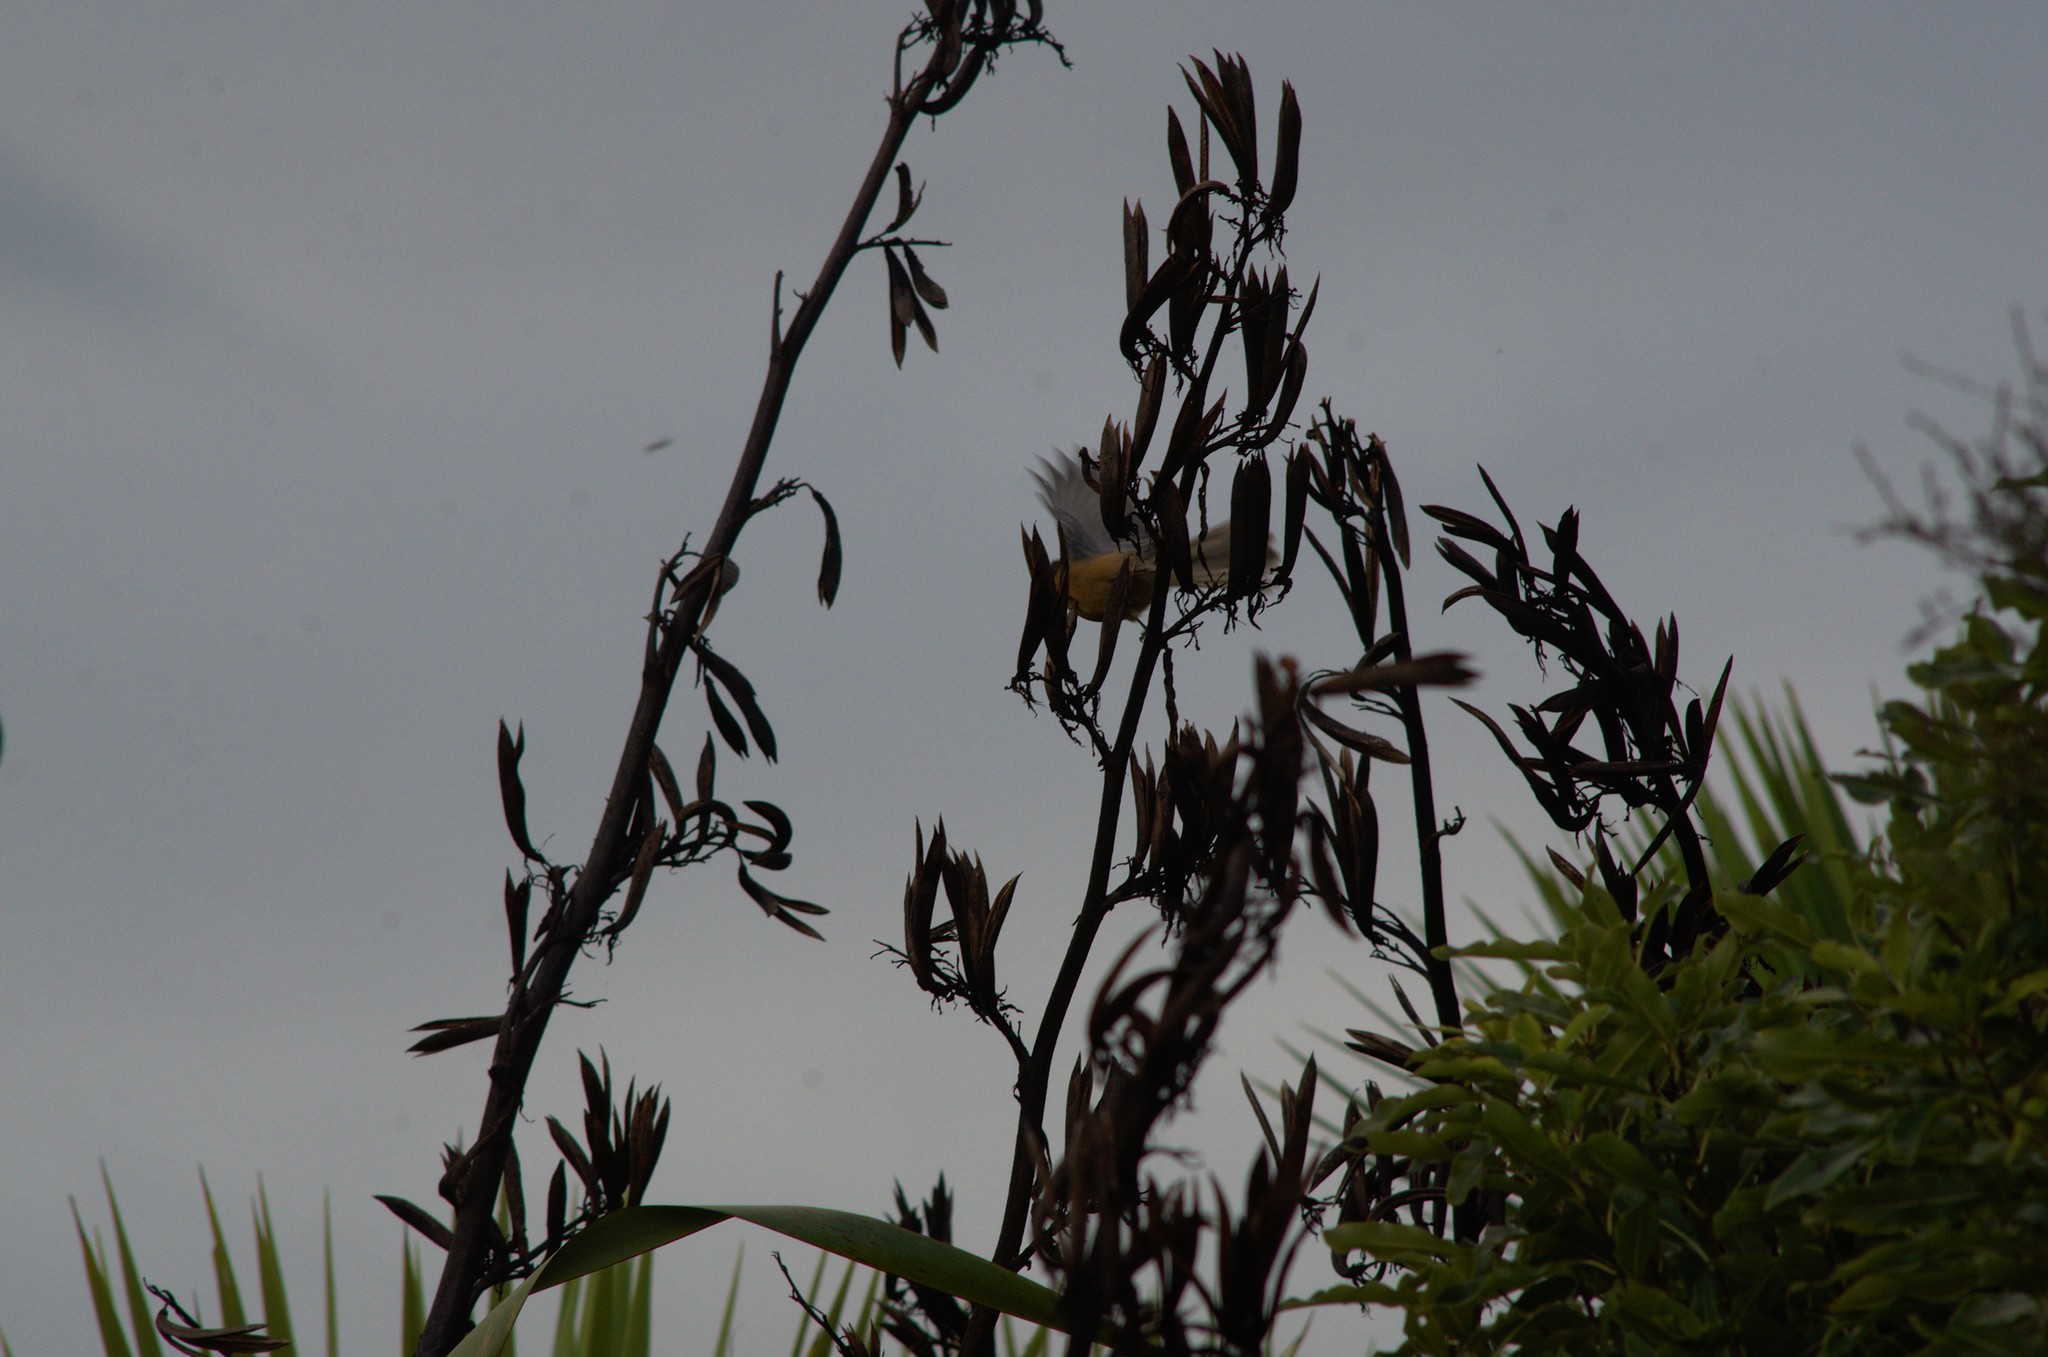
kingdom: Plantae
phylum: Tracheophyta
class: Liliopsida
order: Asparagales
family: Asphodelaceae
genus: Phormium
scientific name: Phormium tenax
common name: New zealand flax
